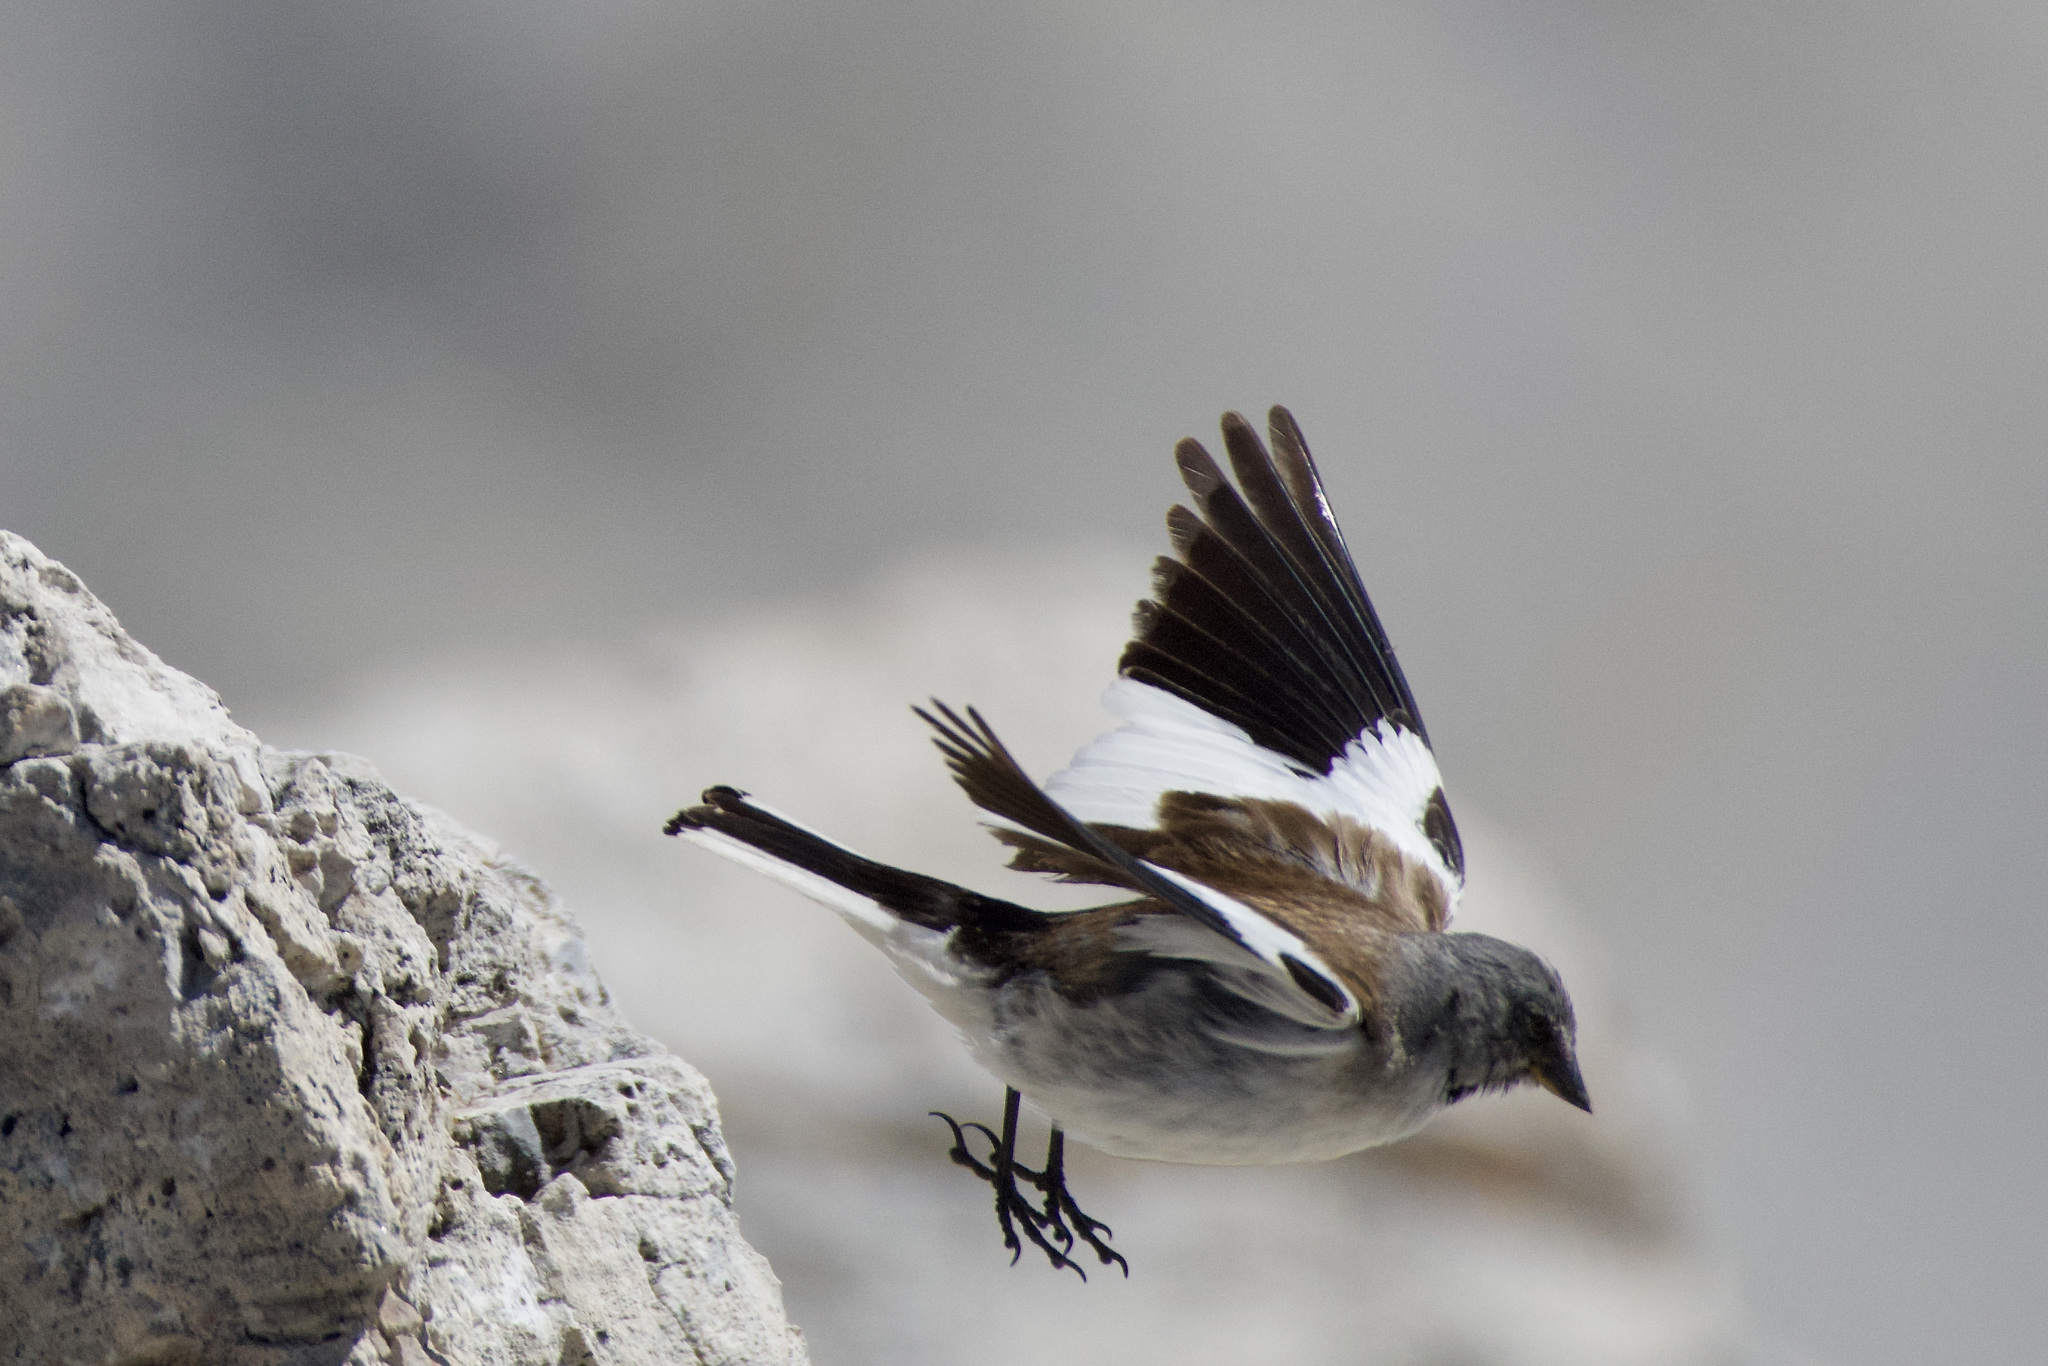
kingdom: Animalia
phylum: Chordata
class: Aves
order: Passeriformes
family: Passeridae
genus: Montifringilla
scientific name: Montifringilla nivalis
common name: White-winged snowfinch
